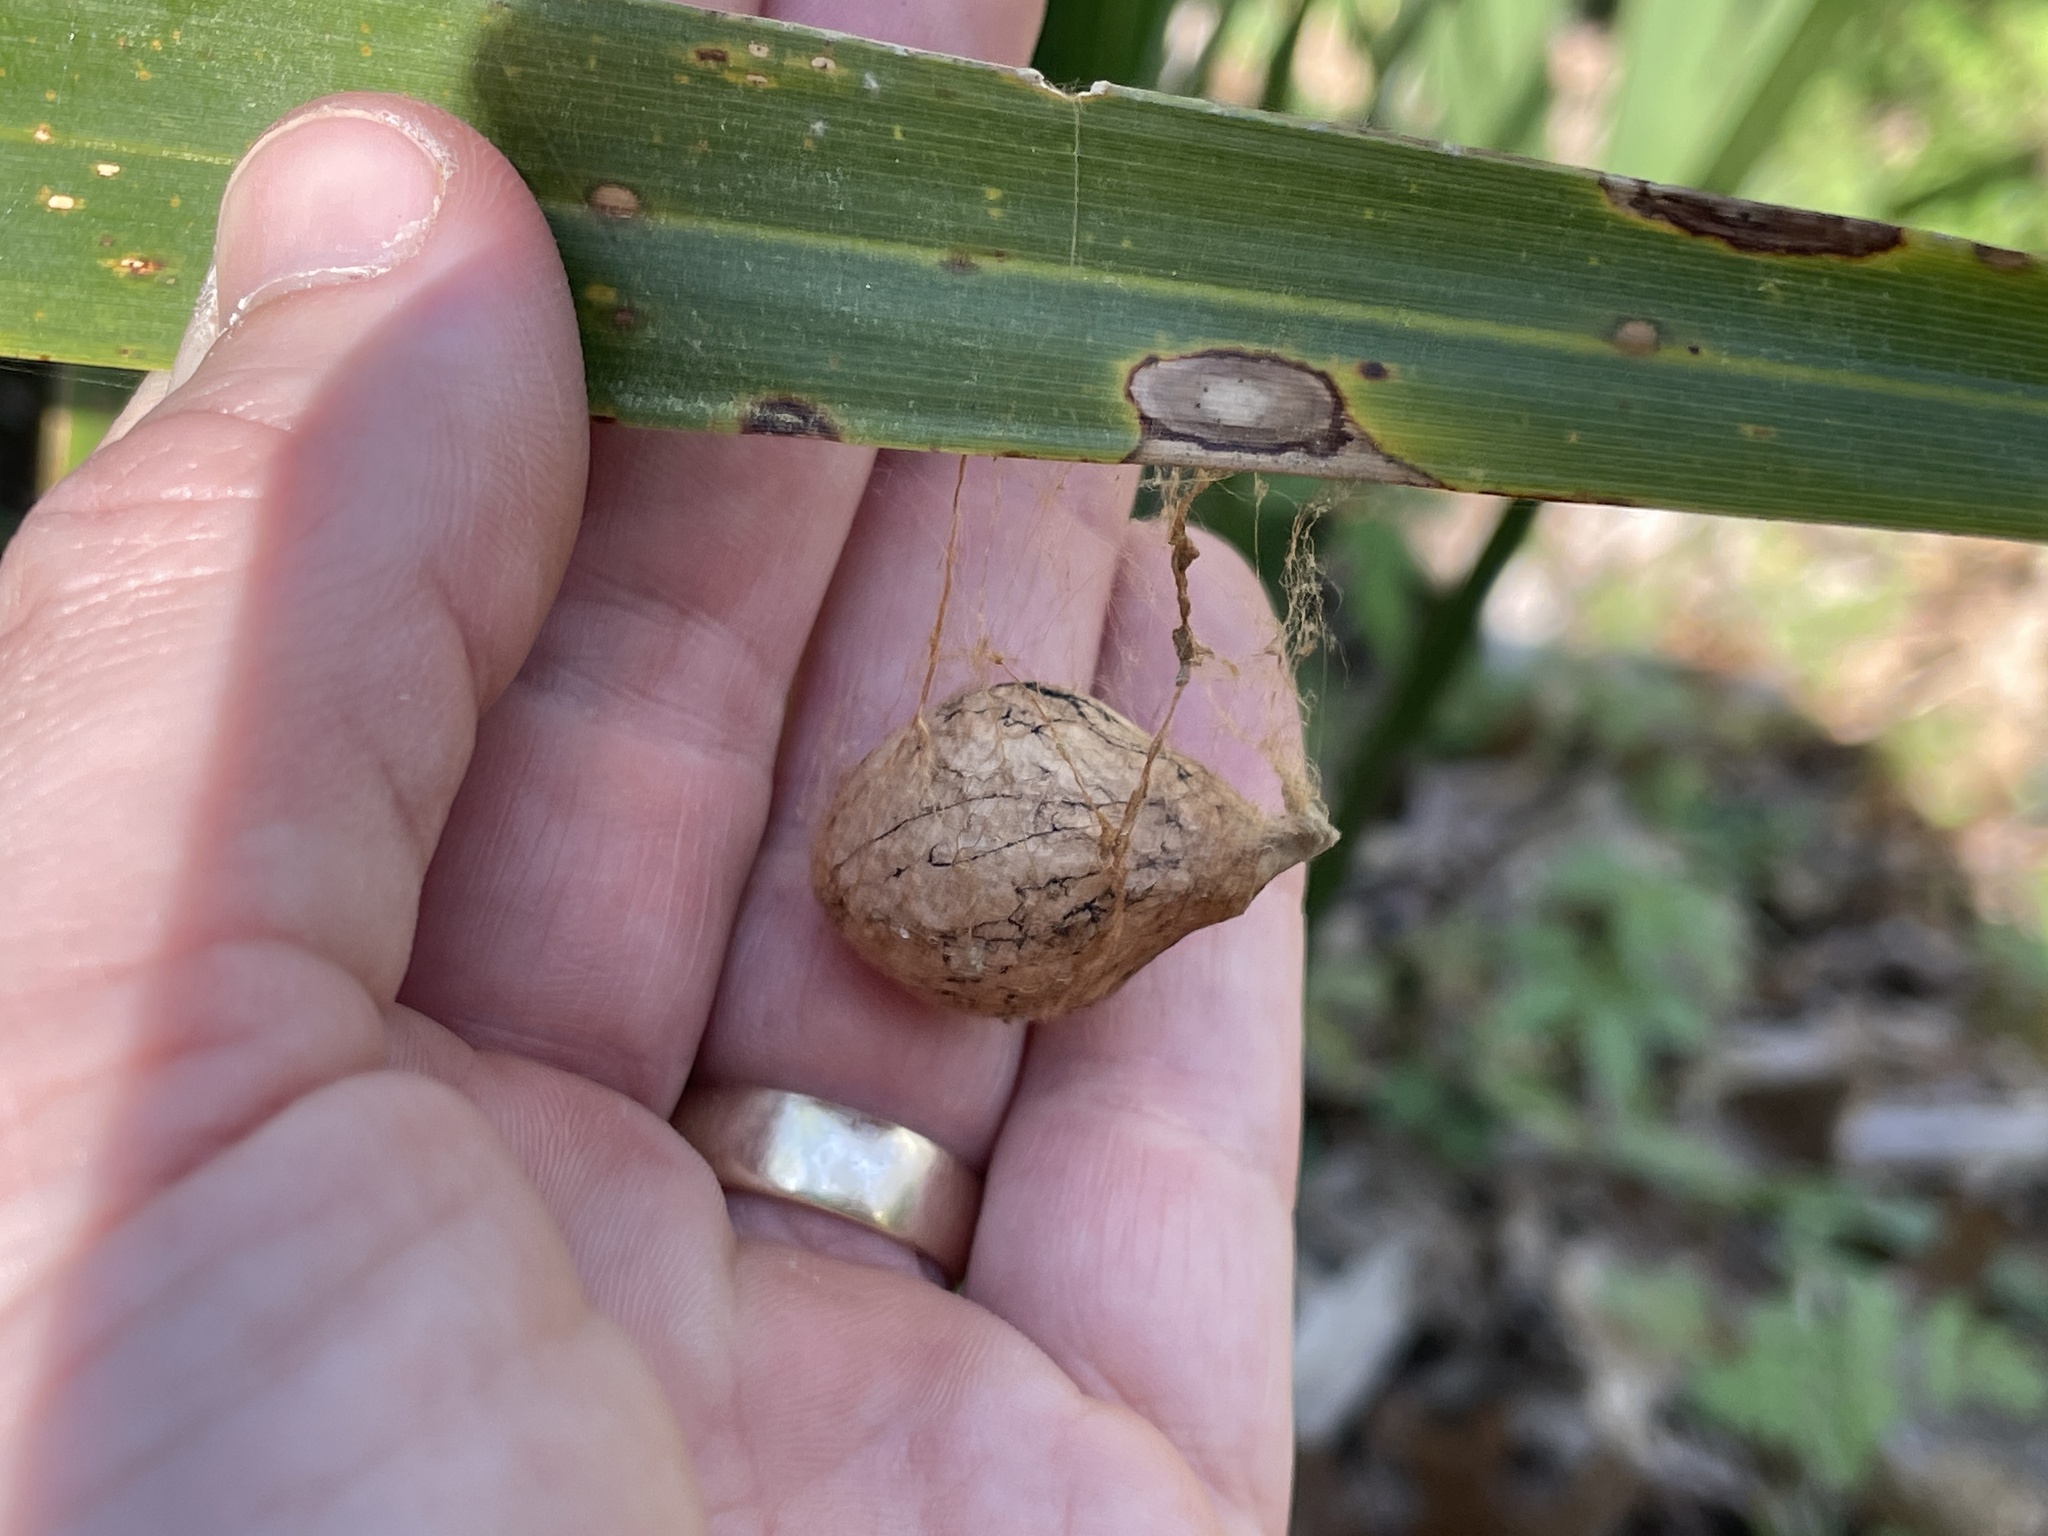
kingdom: Animalia
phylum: Arthropoda
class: Arachnida
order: Araneae
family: Araneidae
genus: Argiope
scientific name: Argiope aurantia
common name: Orb weavers
